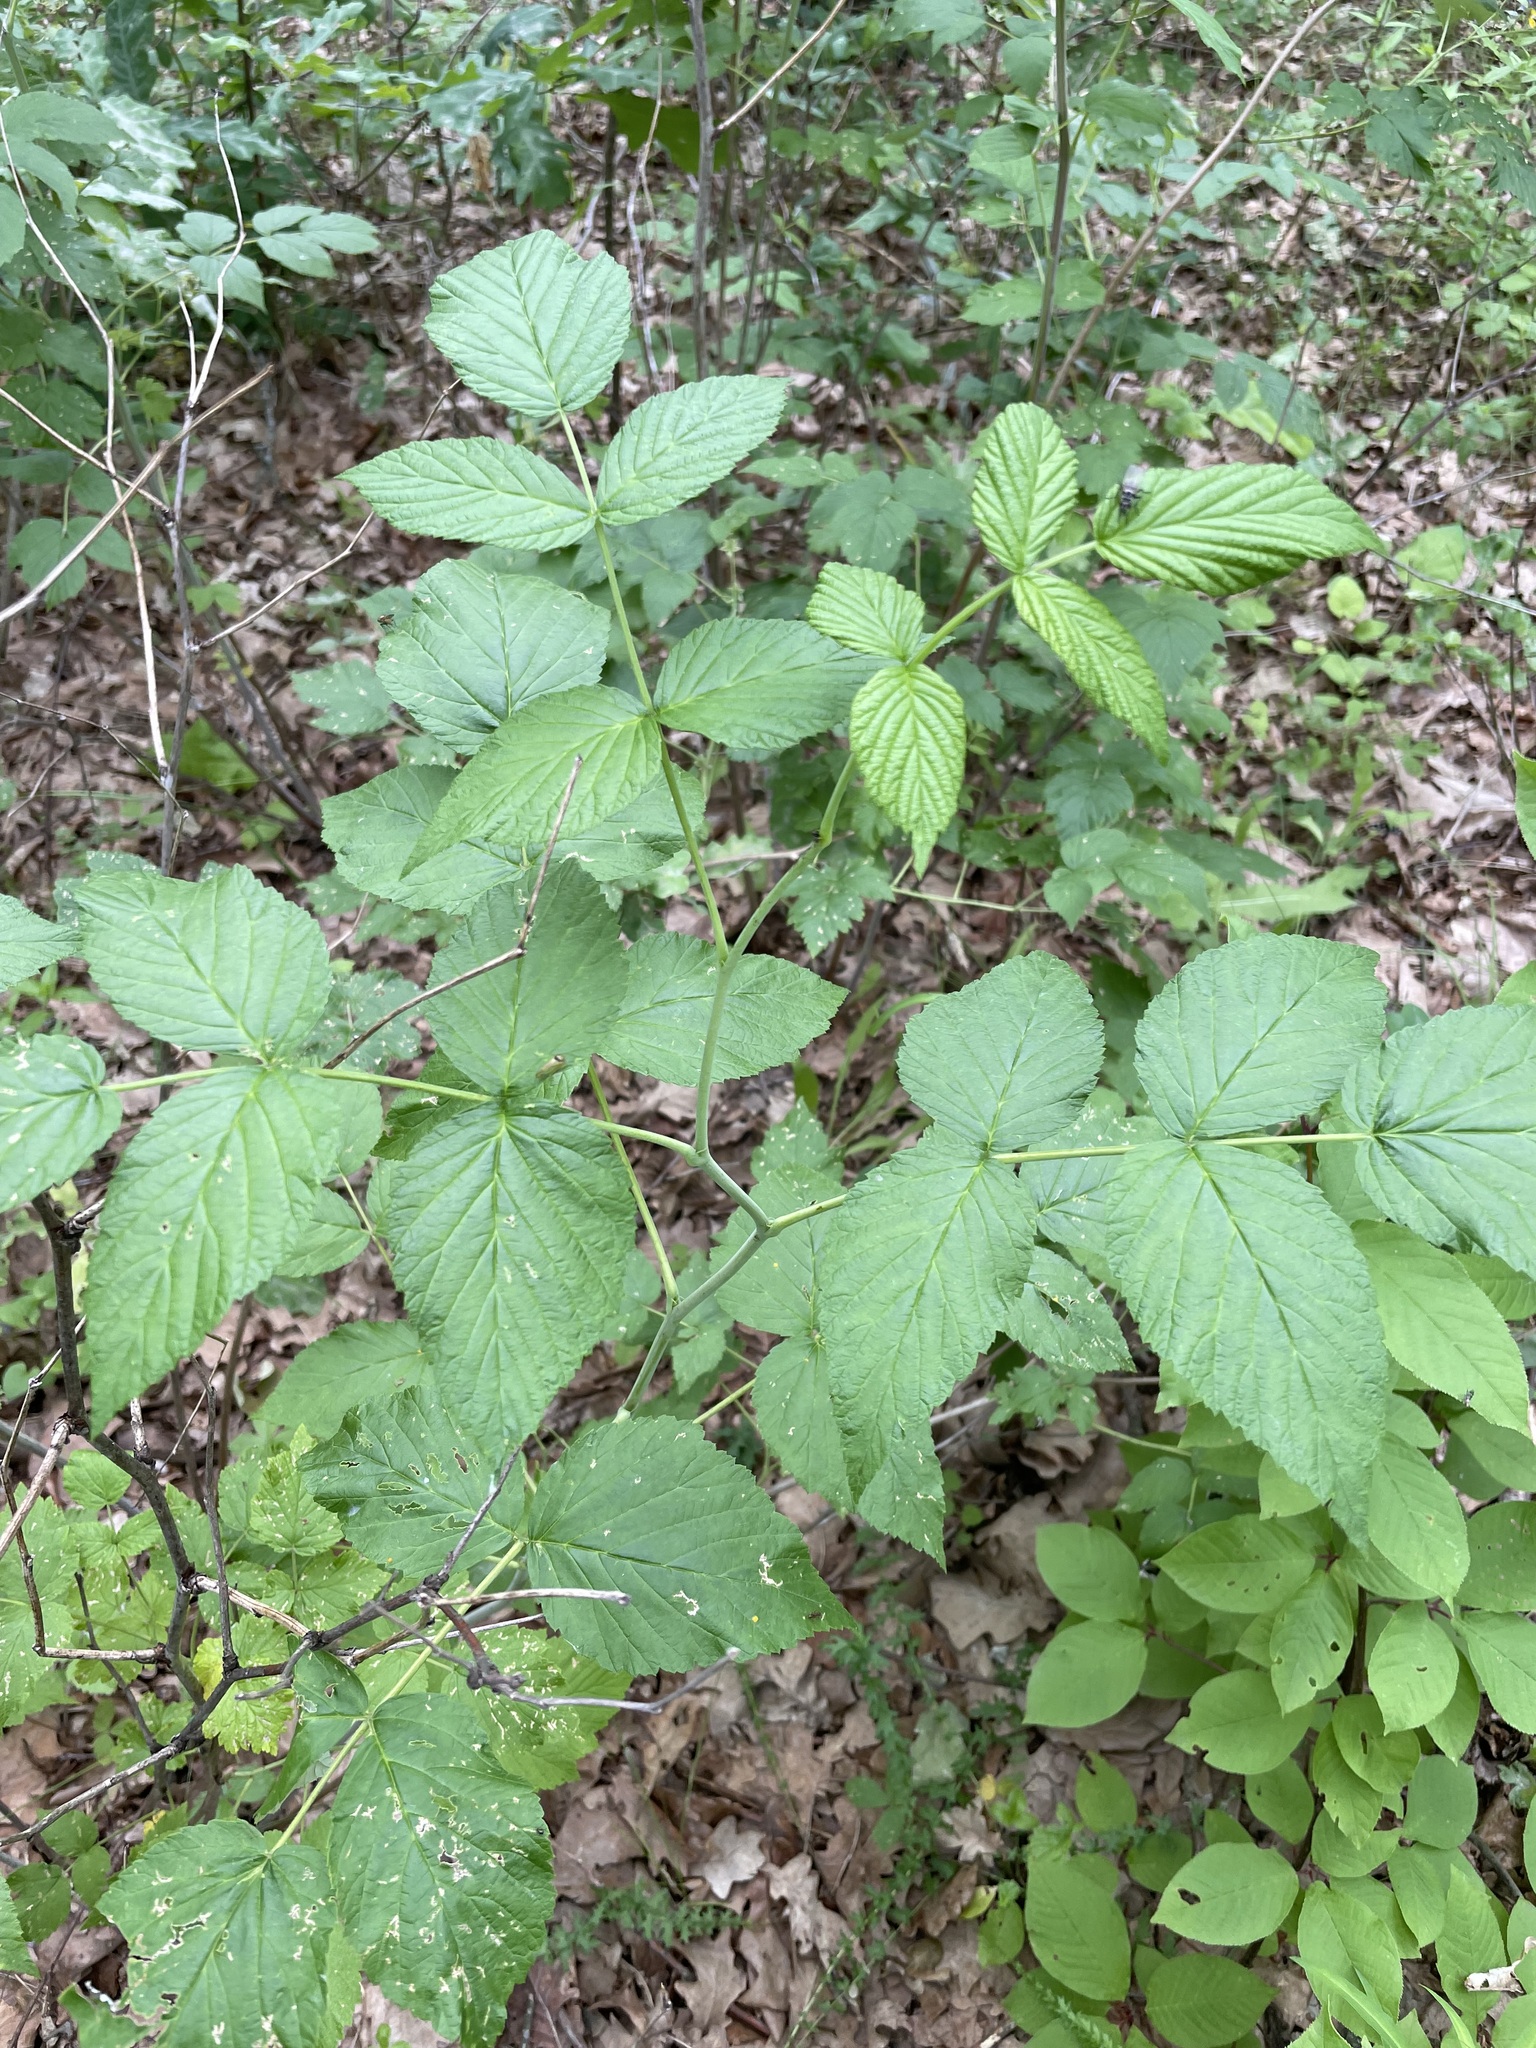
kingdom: Plantae
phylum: Tracheophyta
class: Magnoliopsida
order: Rosales
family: Rosaceae
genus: Rubus
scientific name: Rubus idaeus
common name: Raspberry
